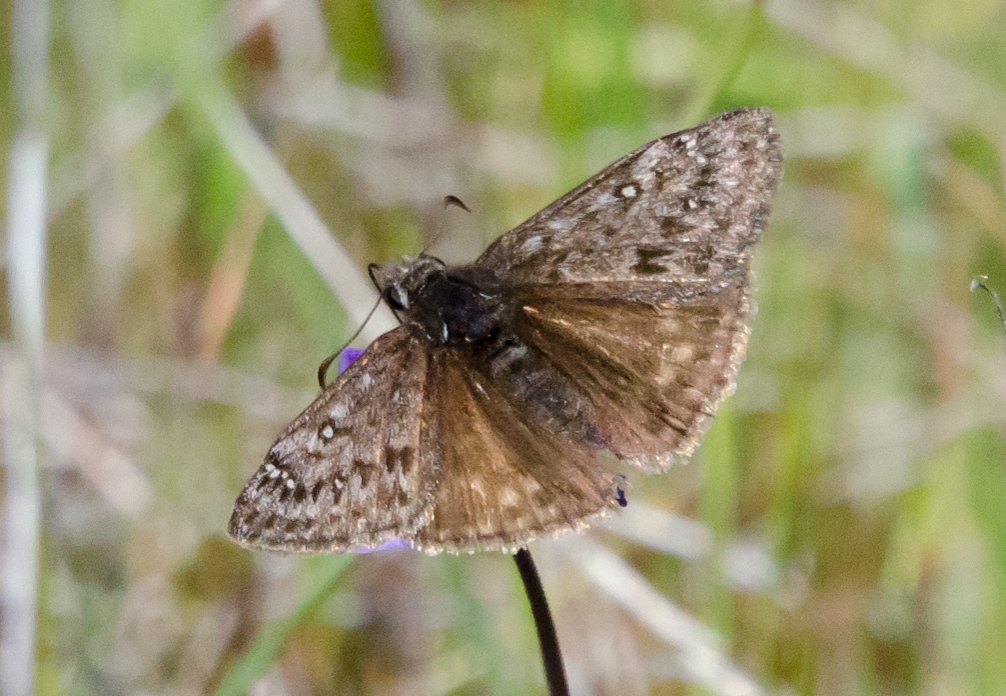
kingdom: Animalia
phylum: Arthropoda
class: Insecta
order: Lepidoptera
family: Hesperiidae
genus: Erynnis
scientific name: Erynnis propertius
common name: Propertius duskywing
